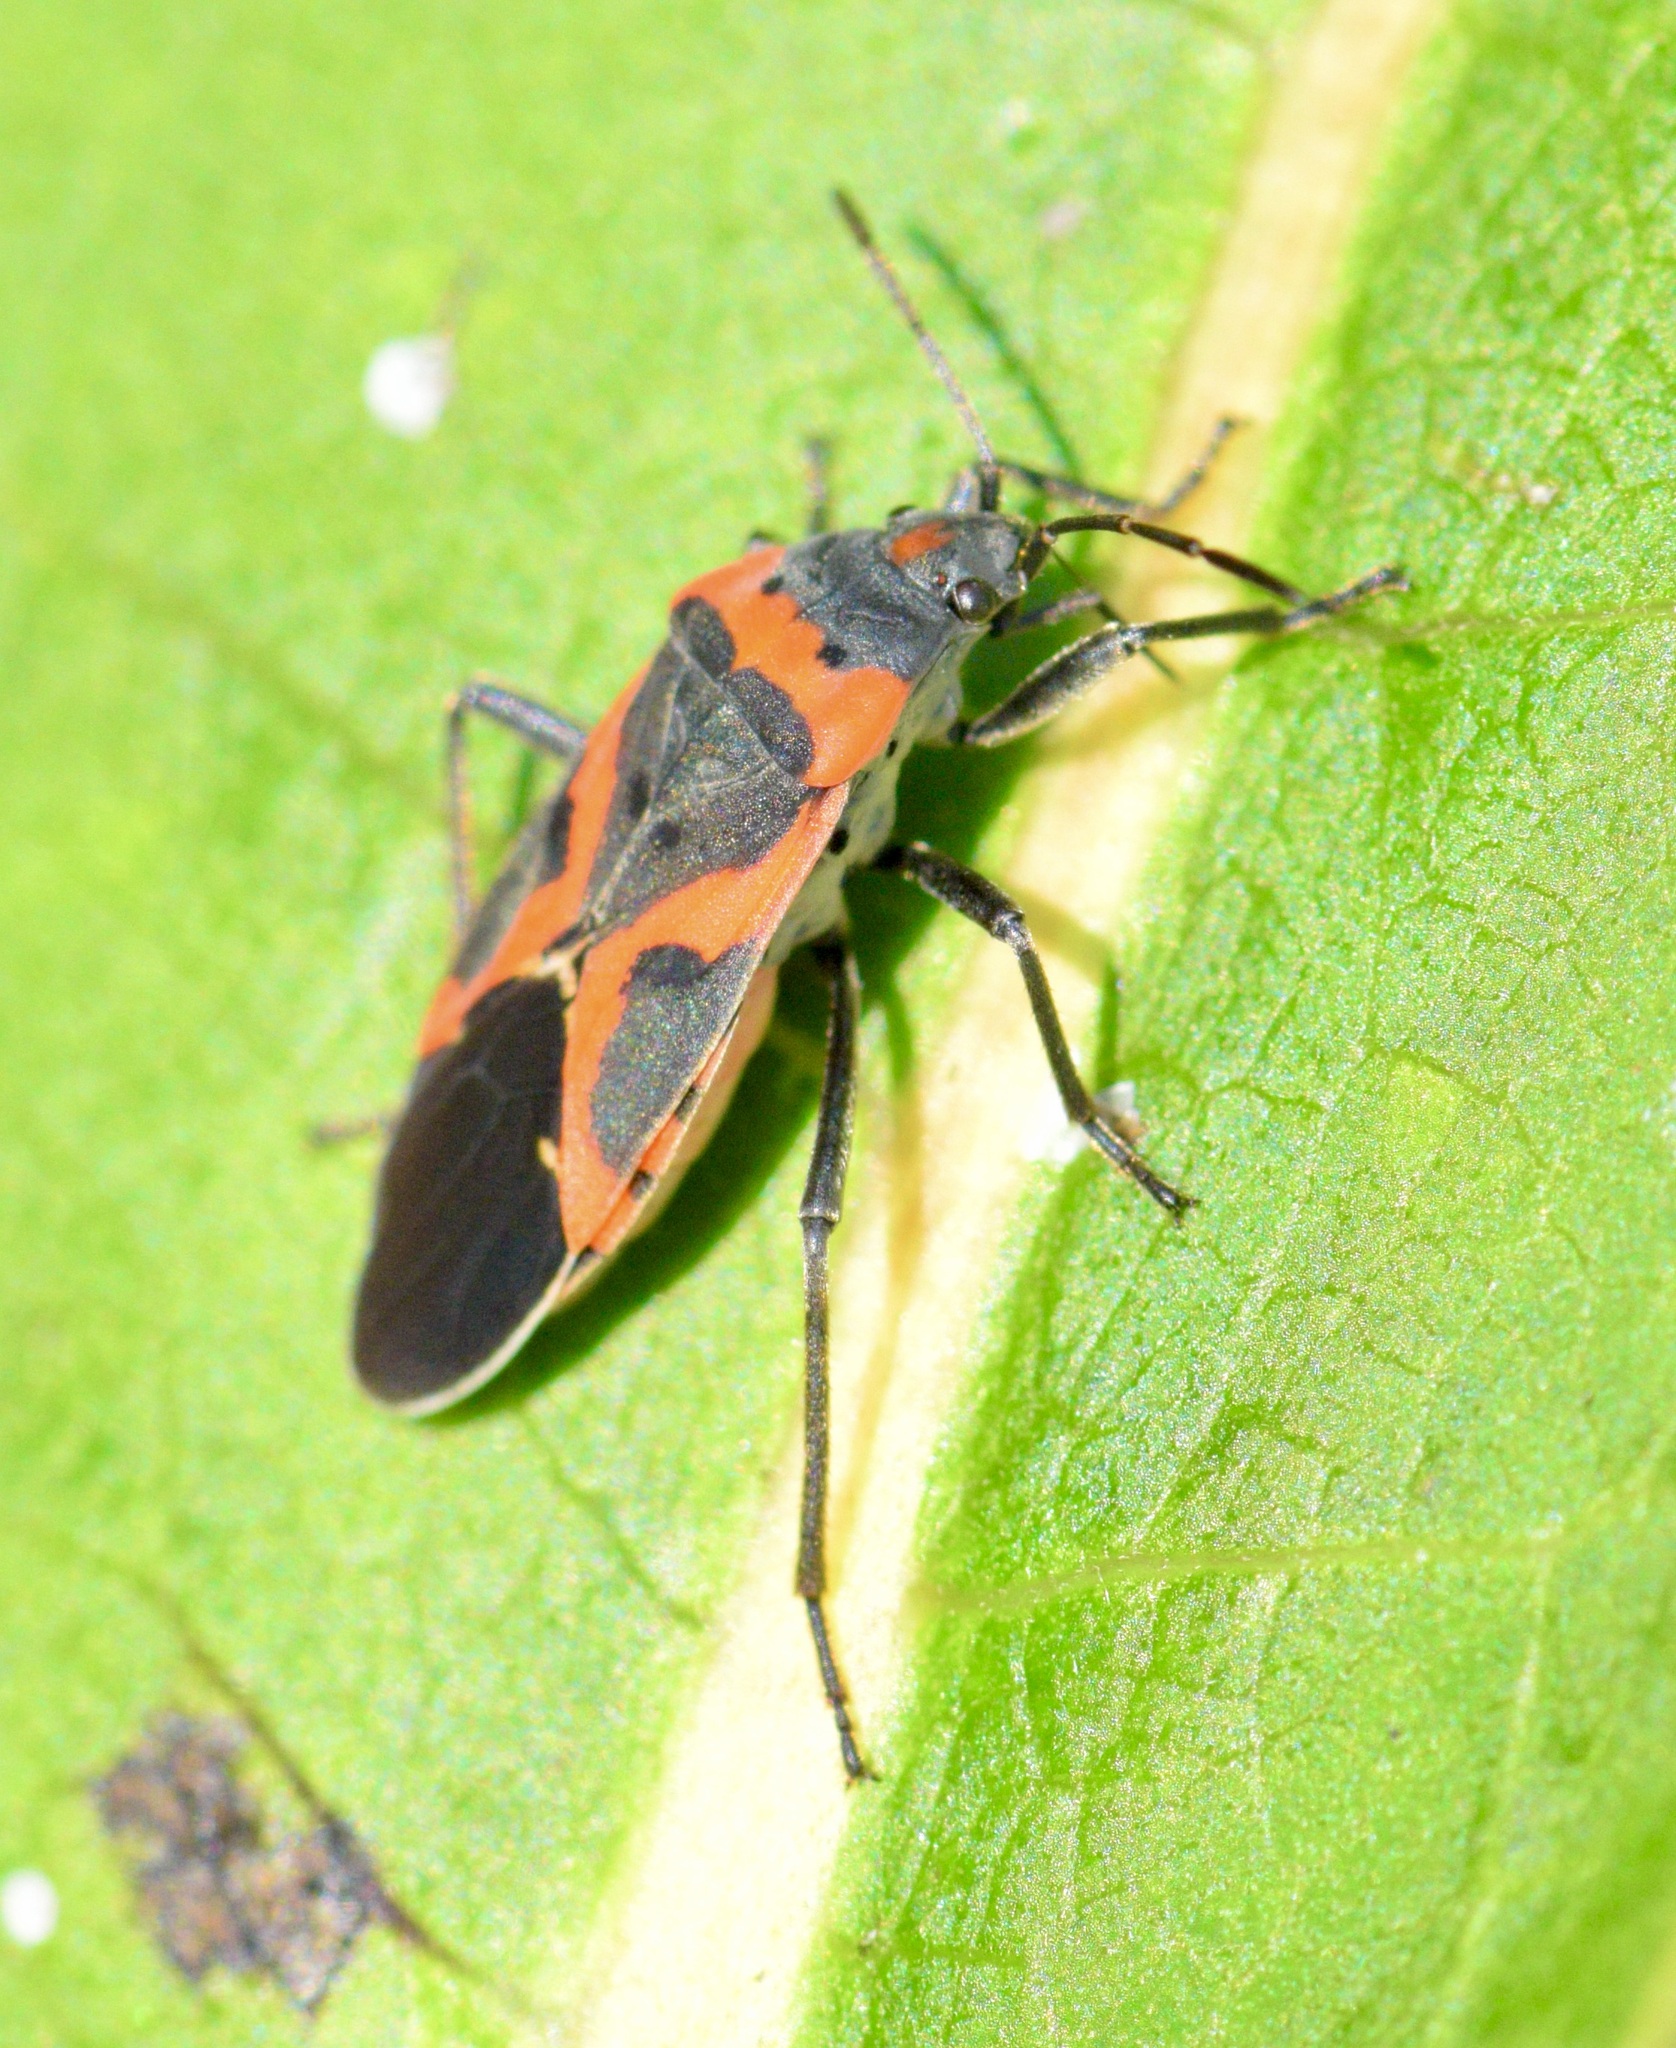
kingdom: Animalia
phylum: Arthropoda
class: Insecta
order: Hemiptera
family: Lygaeidae
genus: Lygaeus
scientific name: Lygaeus kalmii
